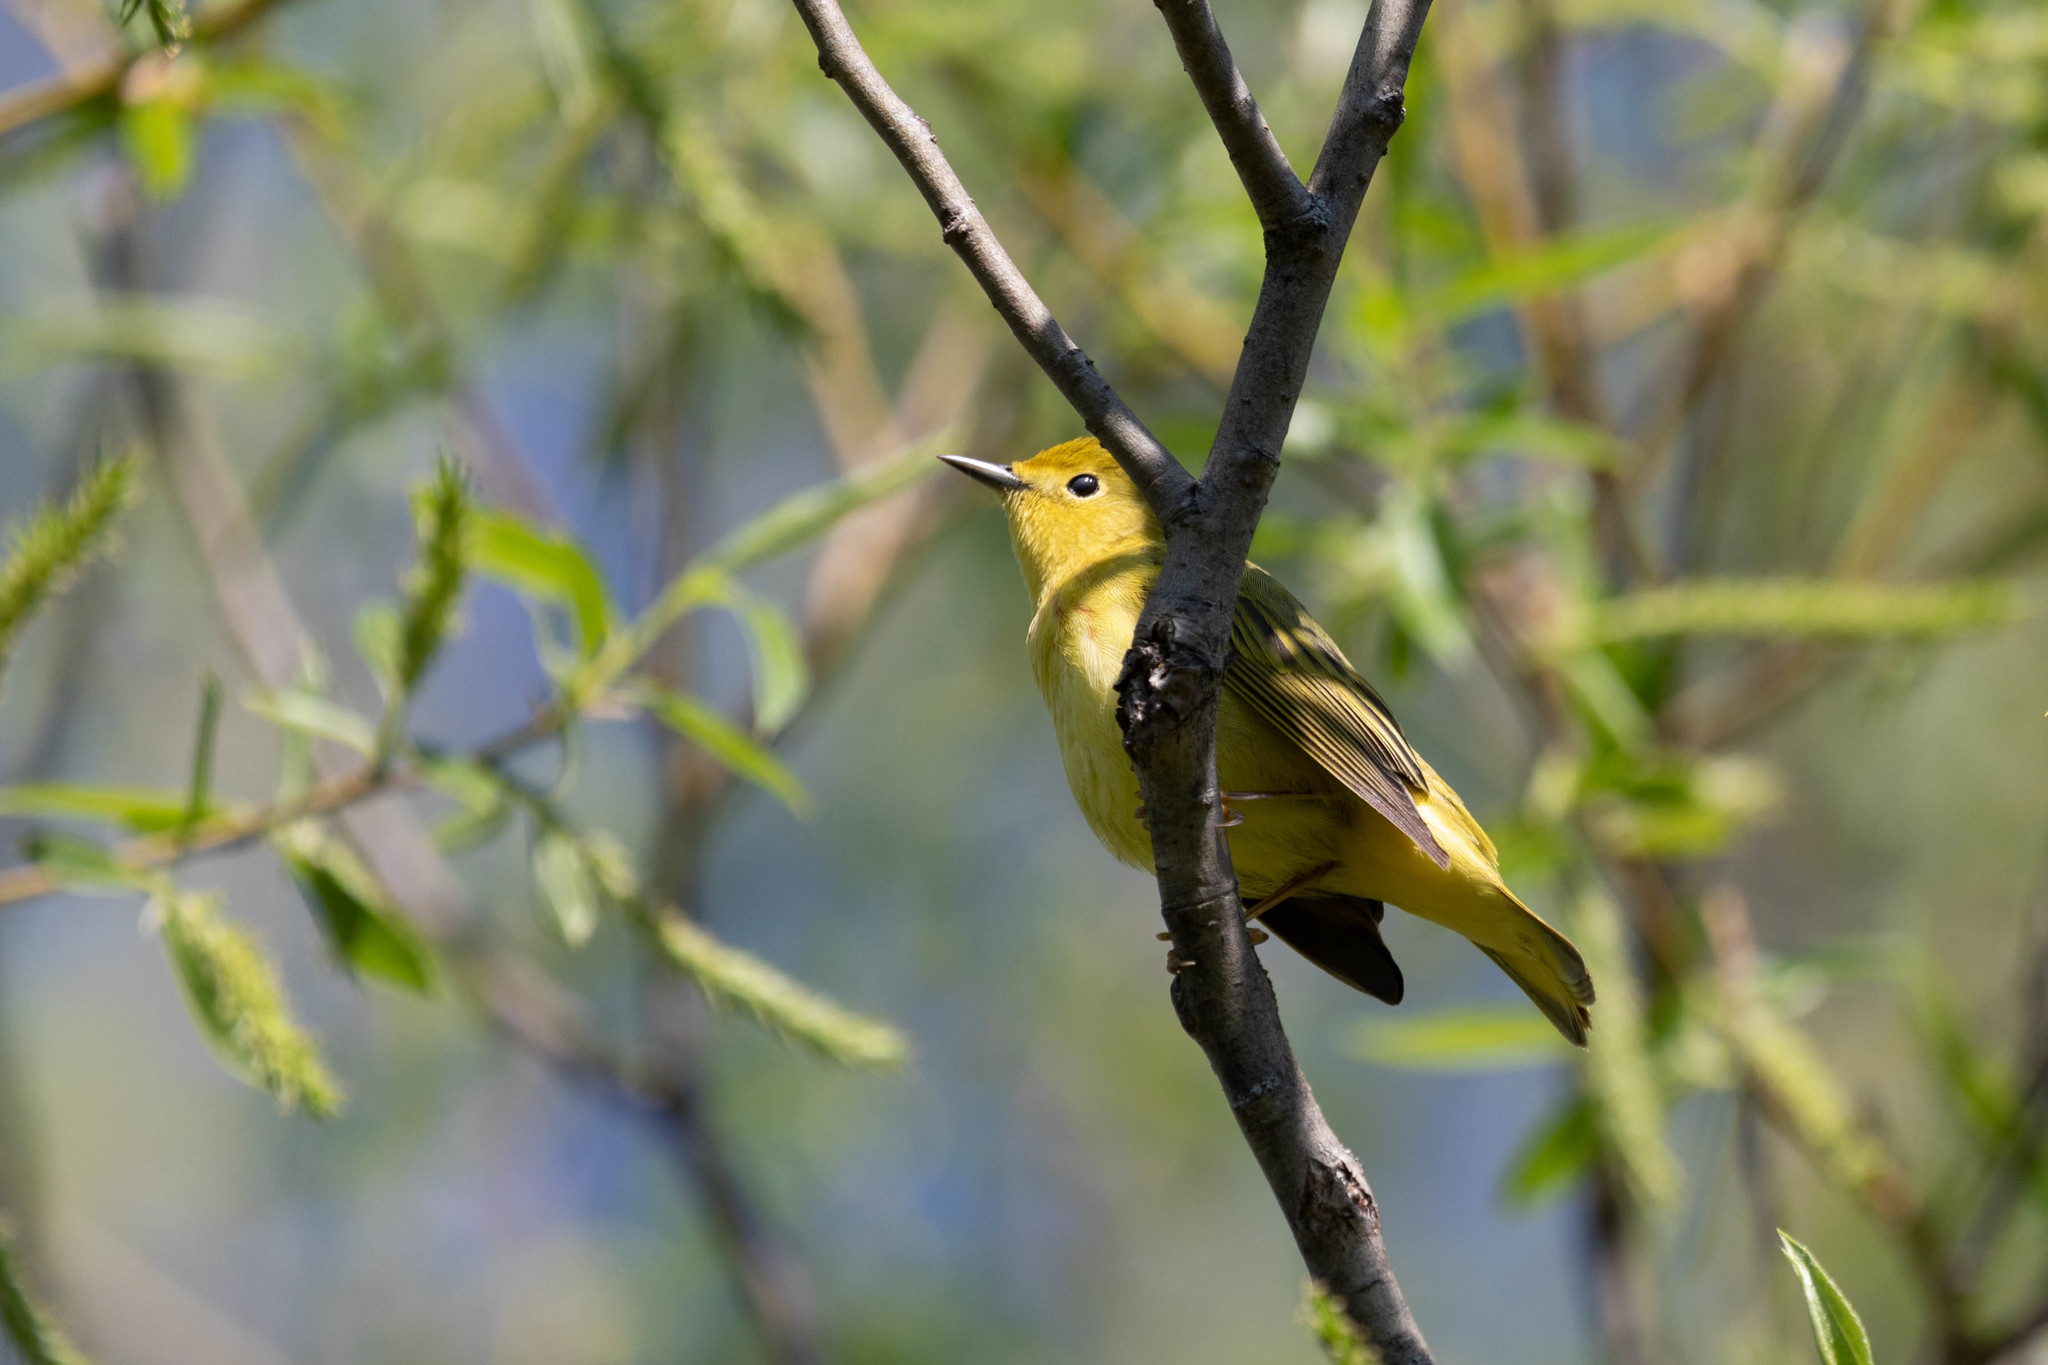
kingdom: Animalia
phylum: Chordata
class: Aves
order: Passeriformes
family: Parulidae
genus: Setophaga
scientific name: Setophaga petechia
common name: Yellow warbler
